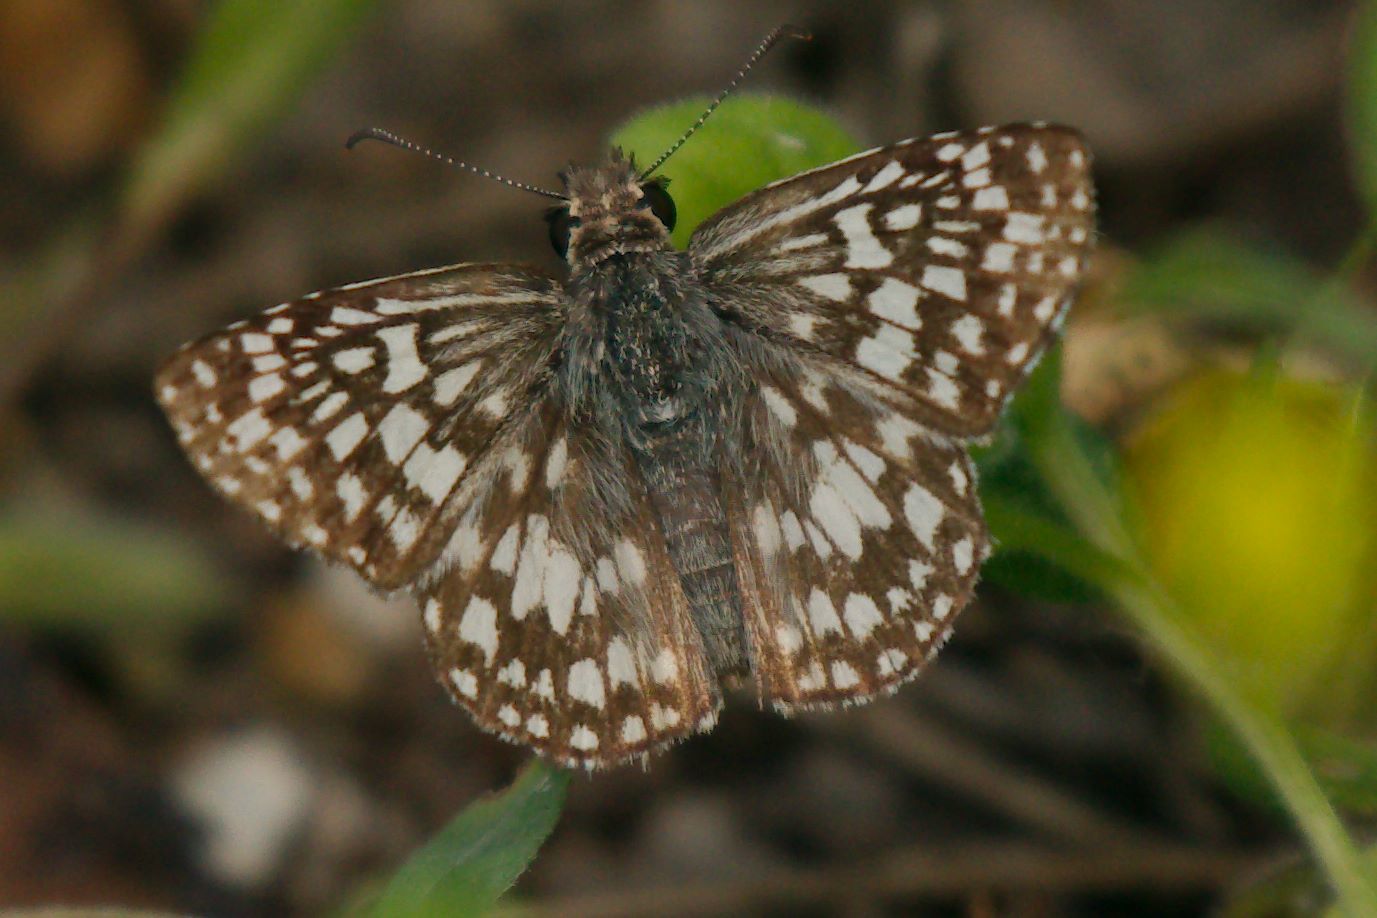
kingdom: Animalia
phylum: Arthropoda
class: Insecta
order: Lepidoptera
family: Hesperiidae
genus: Pyrgus
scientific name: Pyrgus oileus
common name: Tropical checkered-skipper
